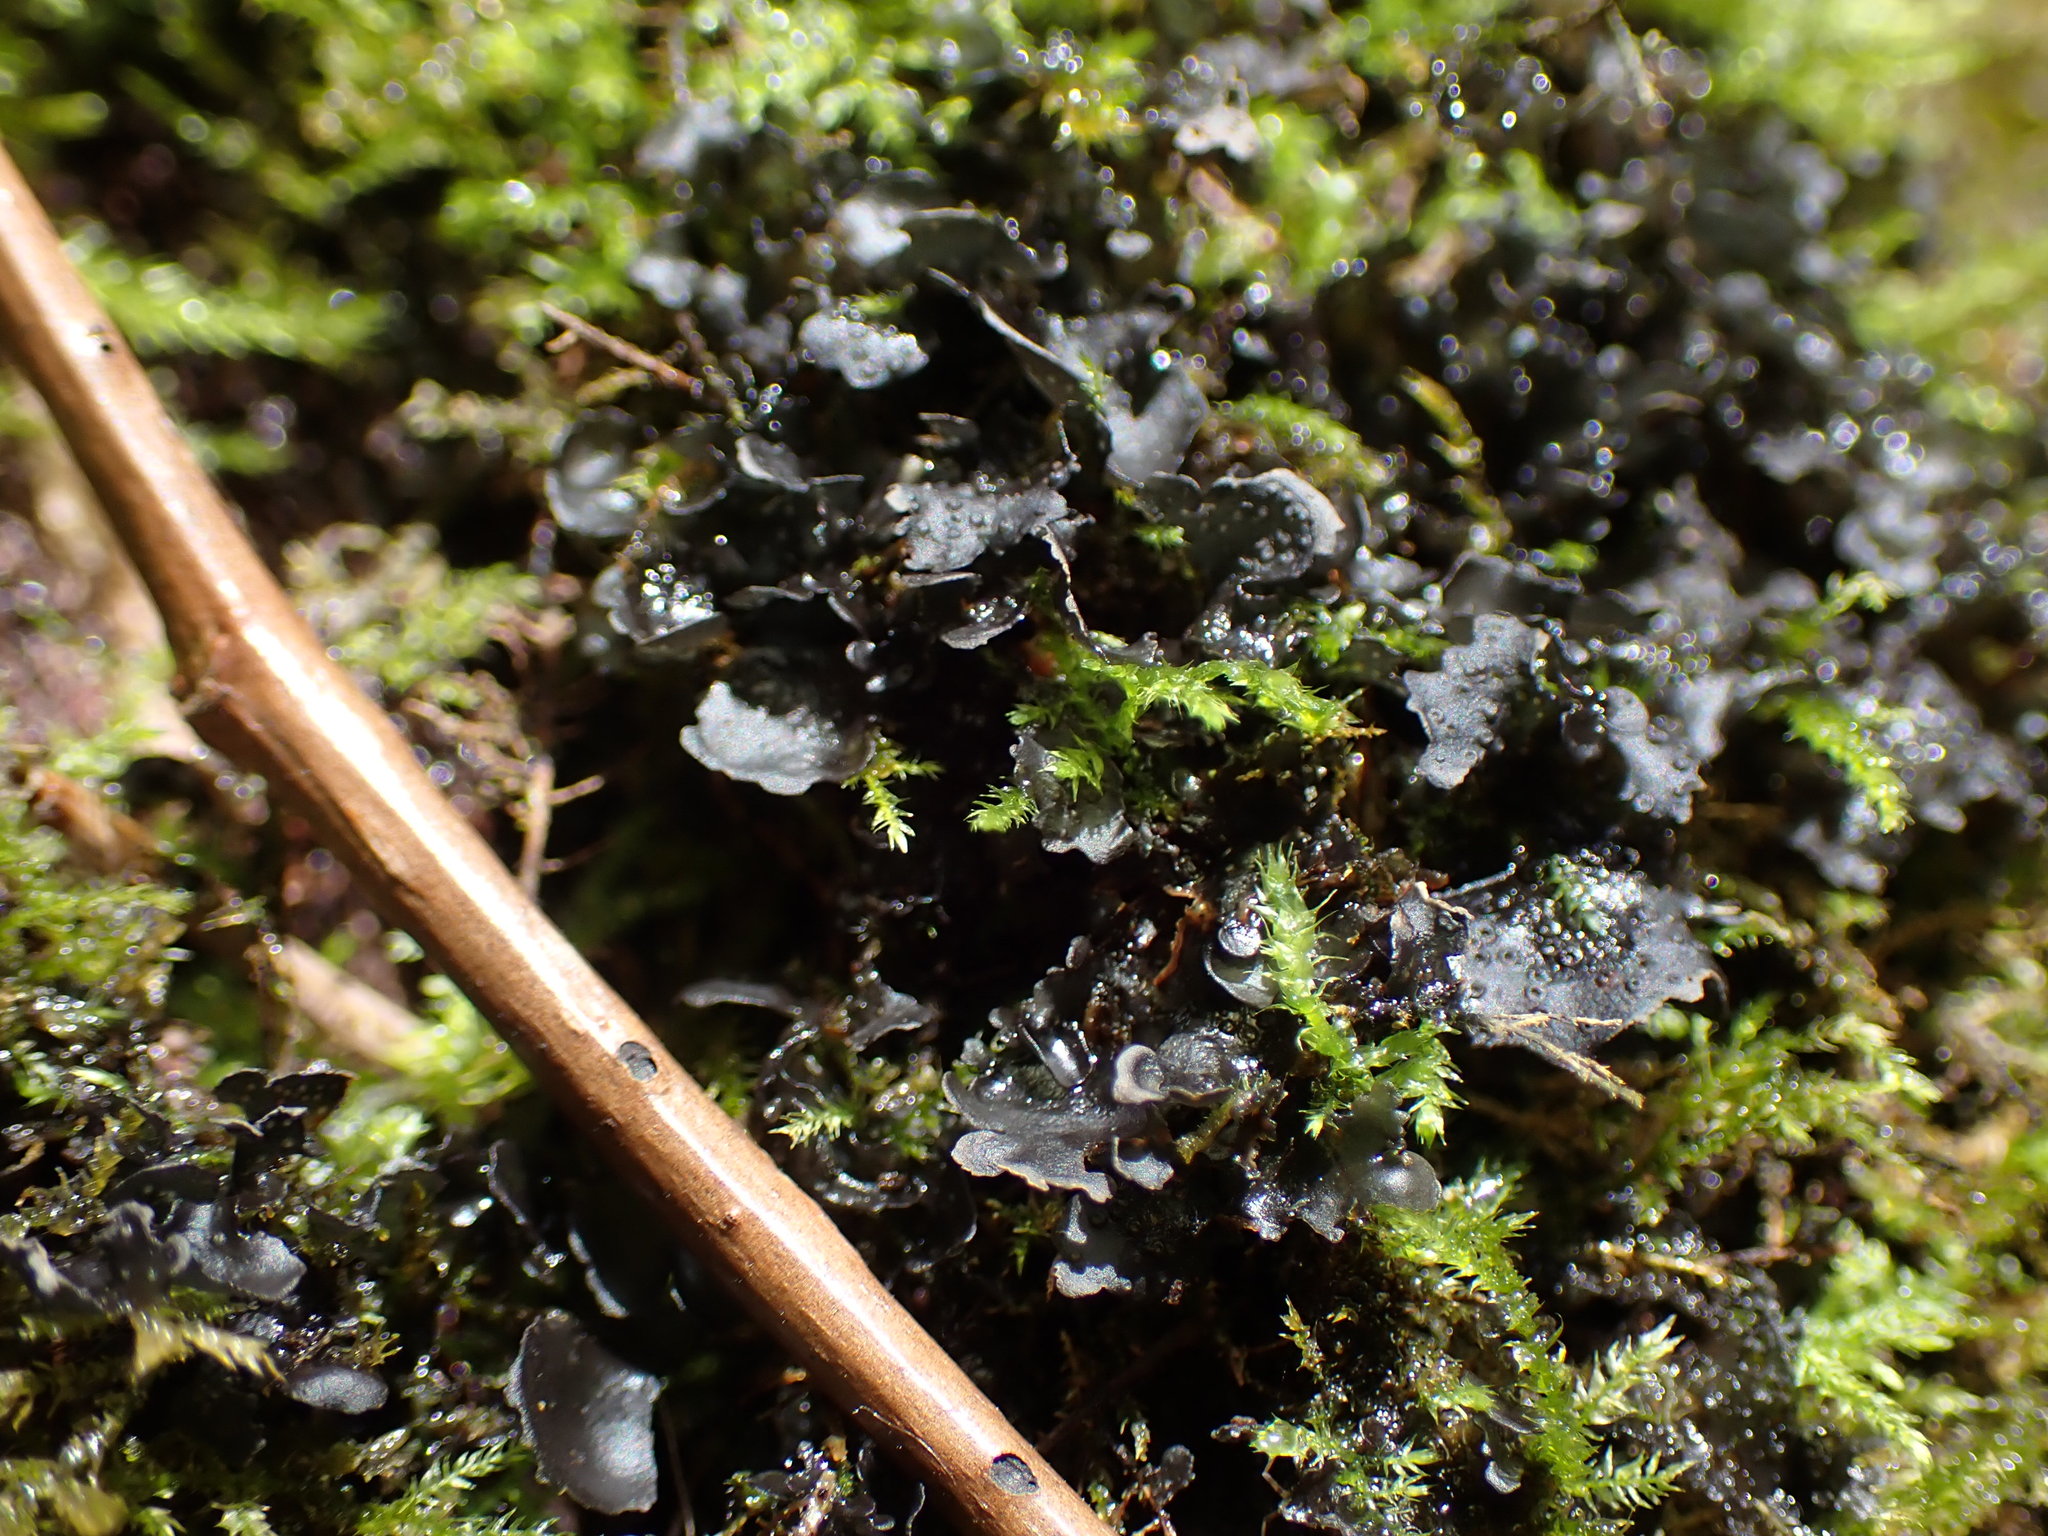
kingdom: Fungi
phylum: Ascomycota
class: Lecanoromycetes
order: Peltigerales
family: Collemataceae
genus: Scytinium
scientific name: Scytinium polycarpum
